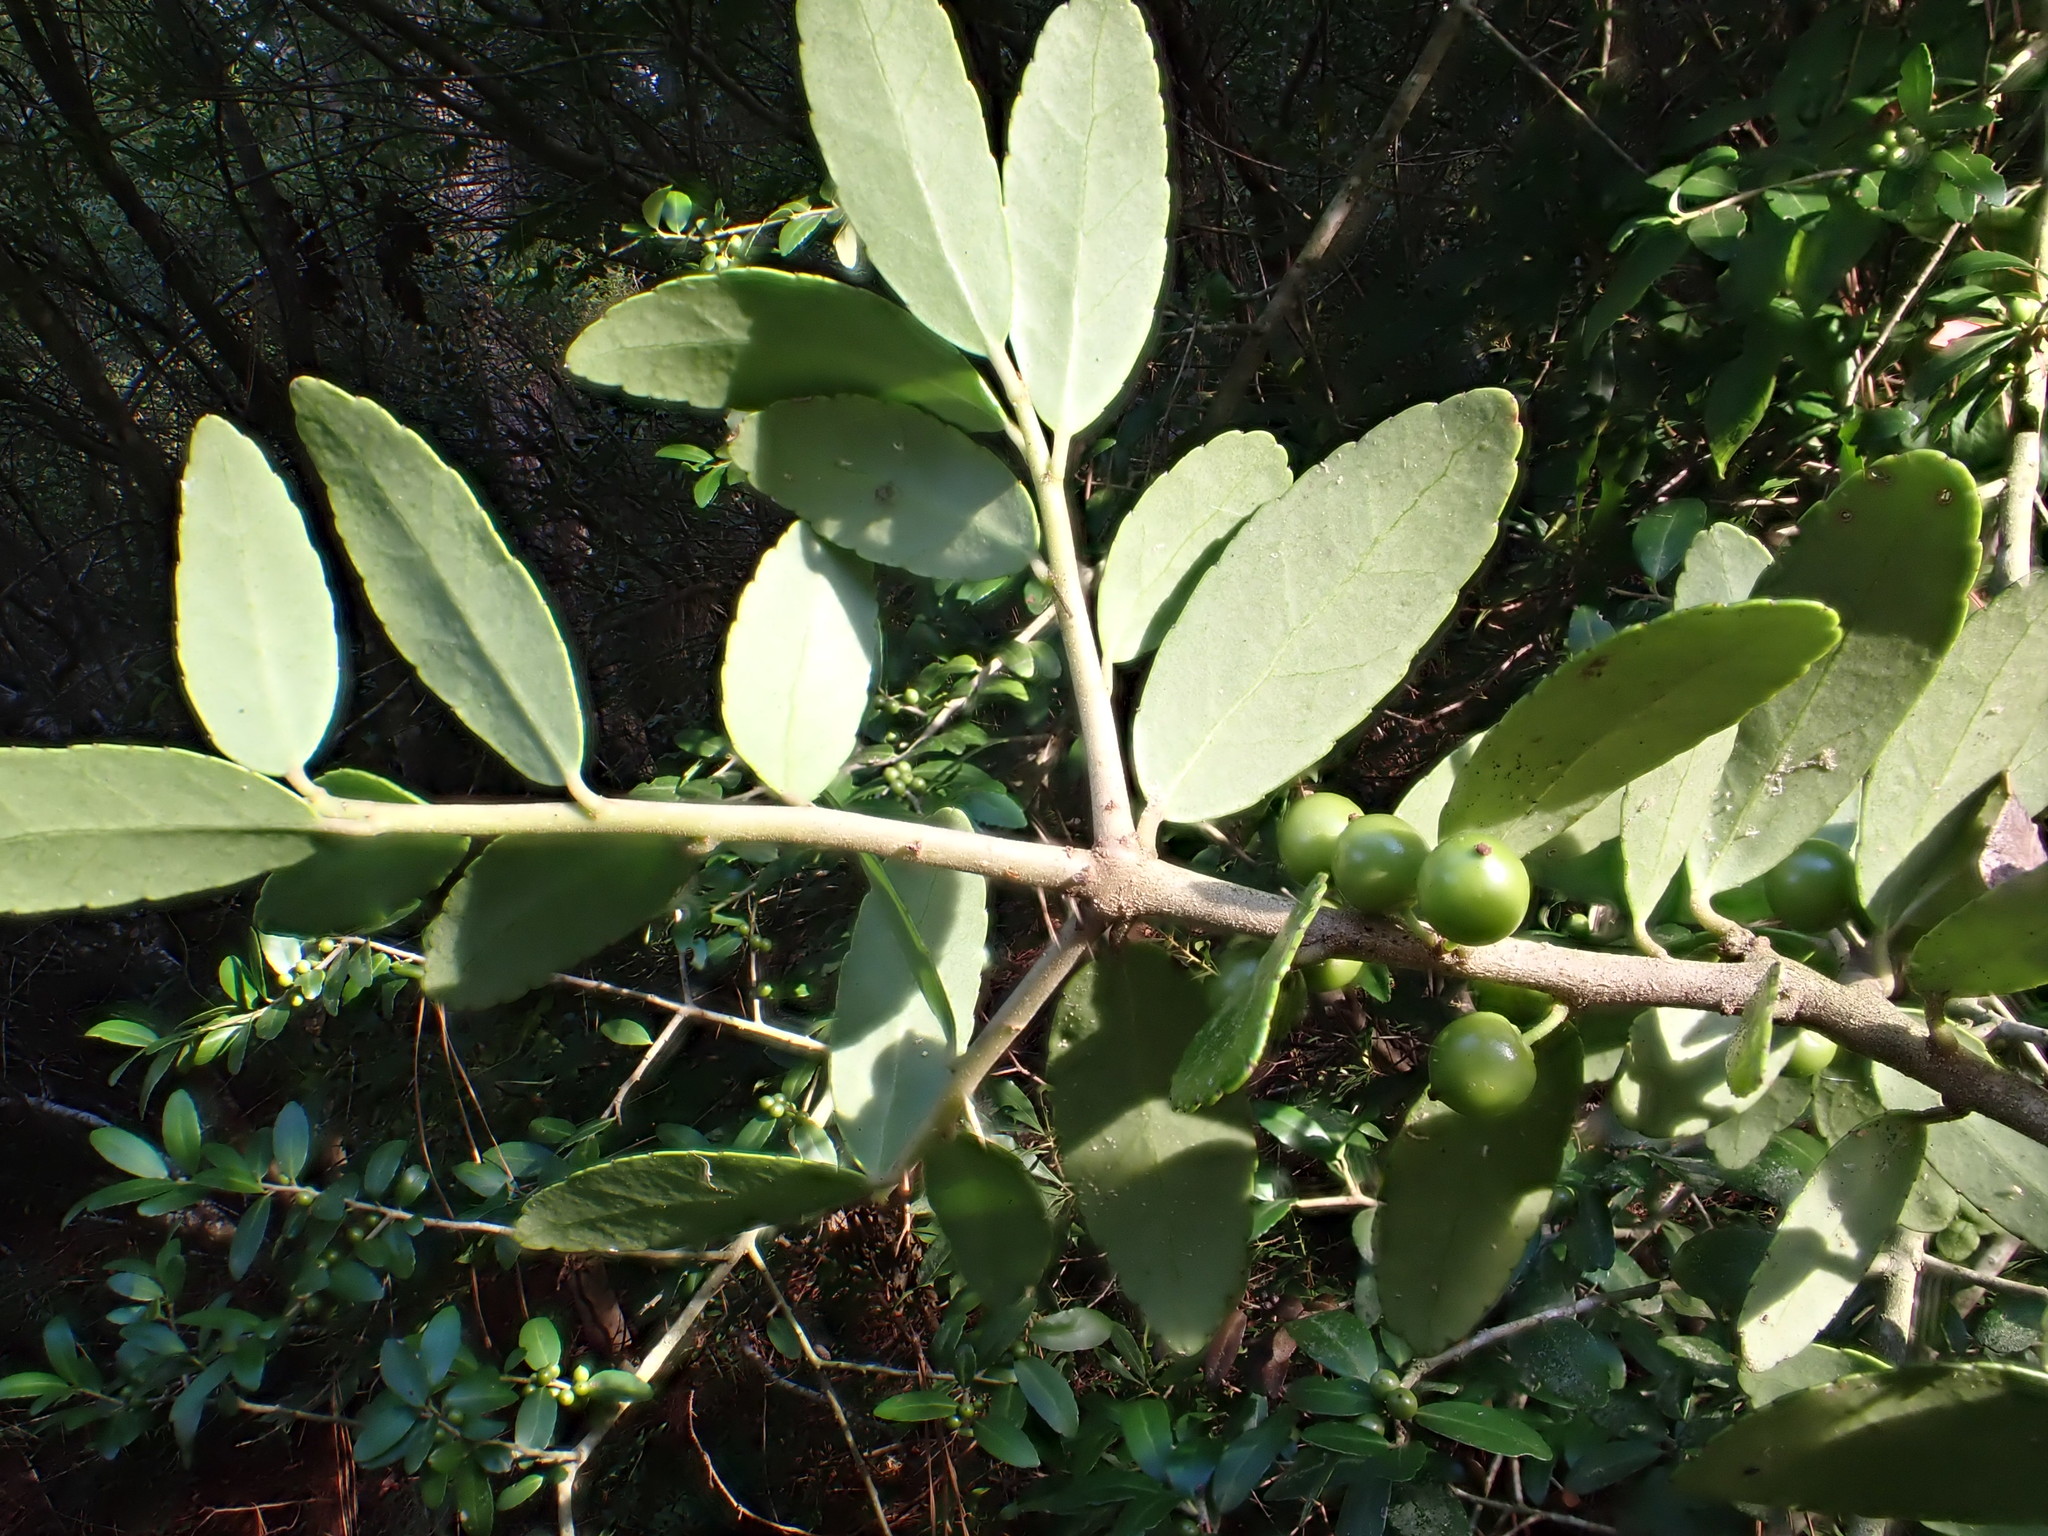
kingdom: Plantae
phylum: Tracheophyta
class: Magnoliopsida
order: Aquifoliales
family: Aquifoliaceae
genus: Ilex
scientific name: Ilex vomitoria
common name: Yaupon holly
